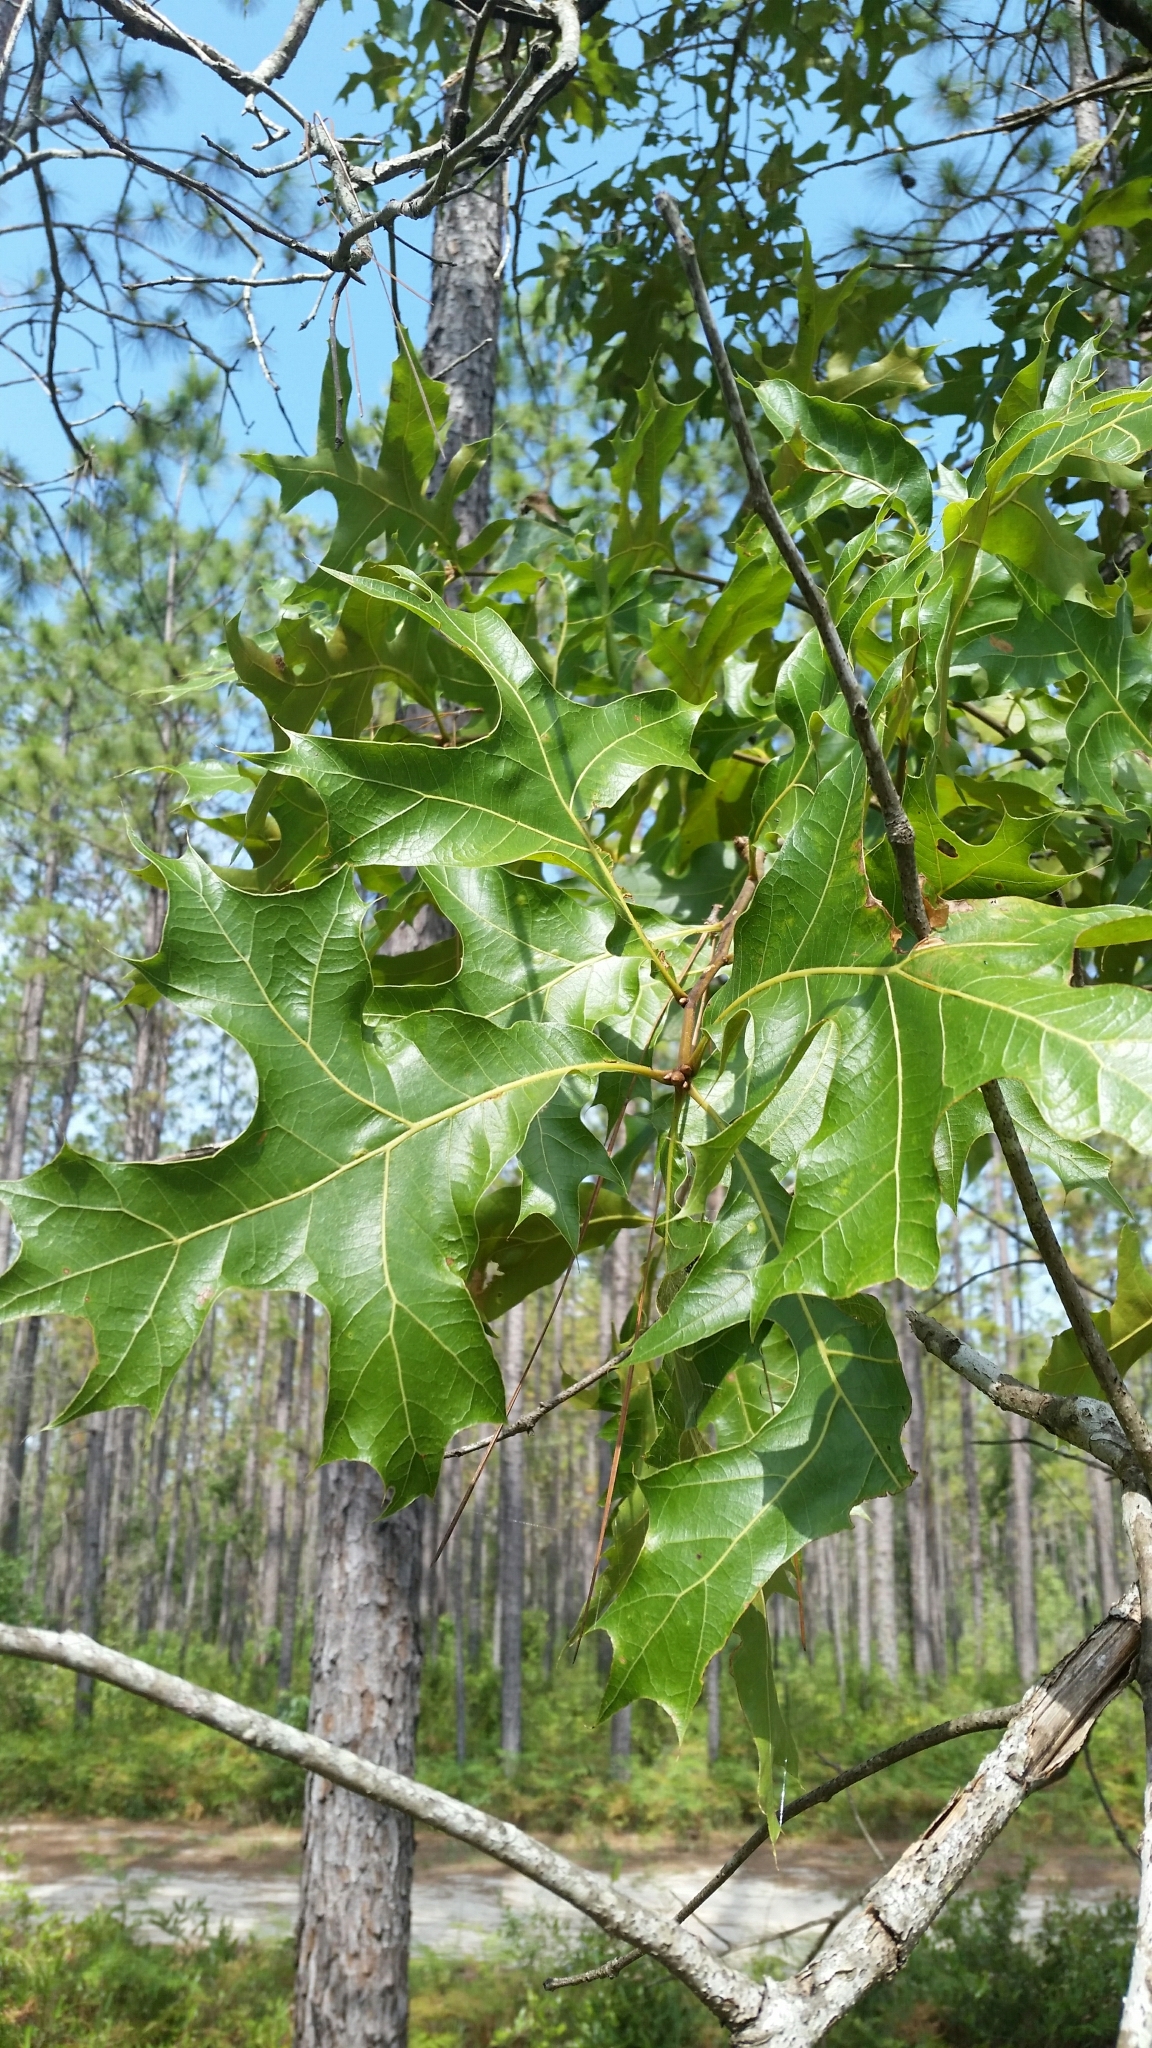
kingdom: Plantae
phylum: Tracheophyta
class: Magnoliopsida
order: Fagales
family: Fagaceae
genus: Quercus
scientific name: Quercus laevis
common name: Turkey oak
